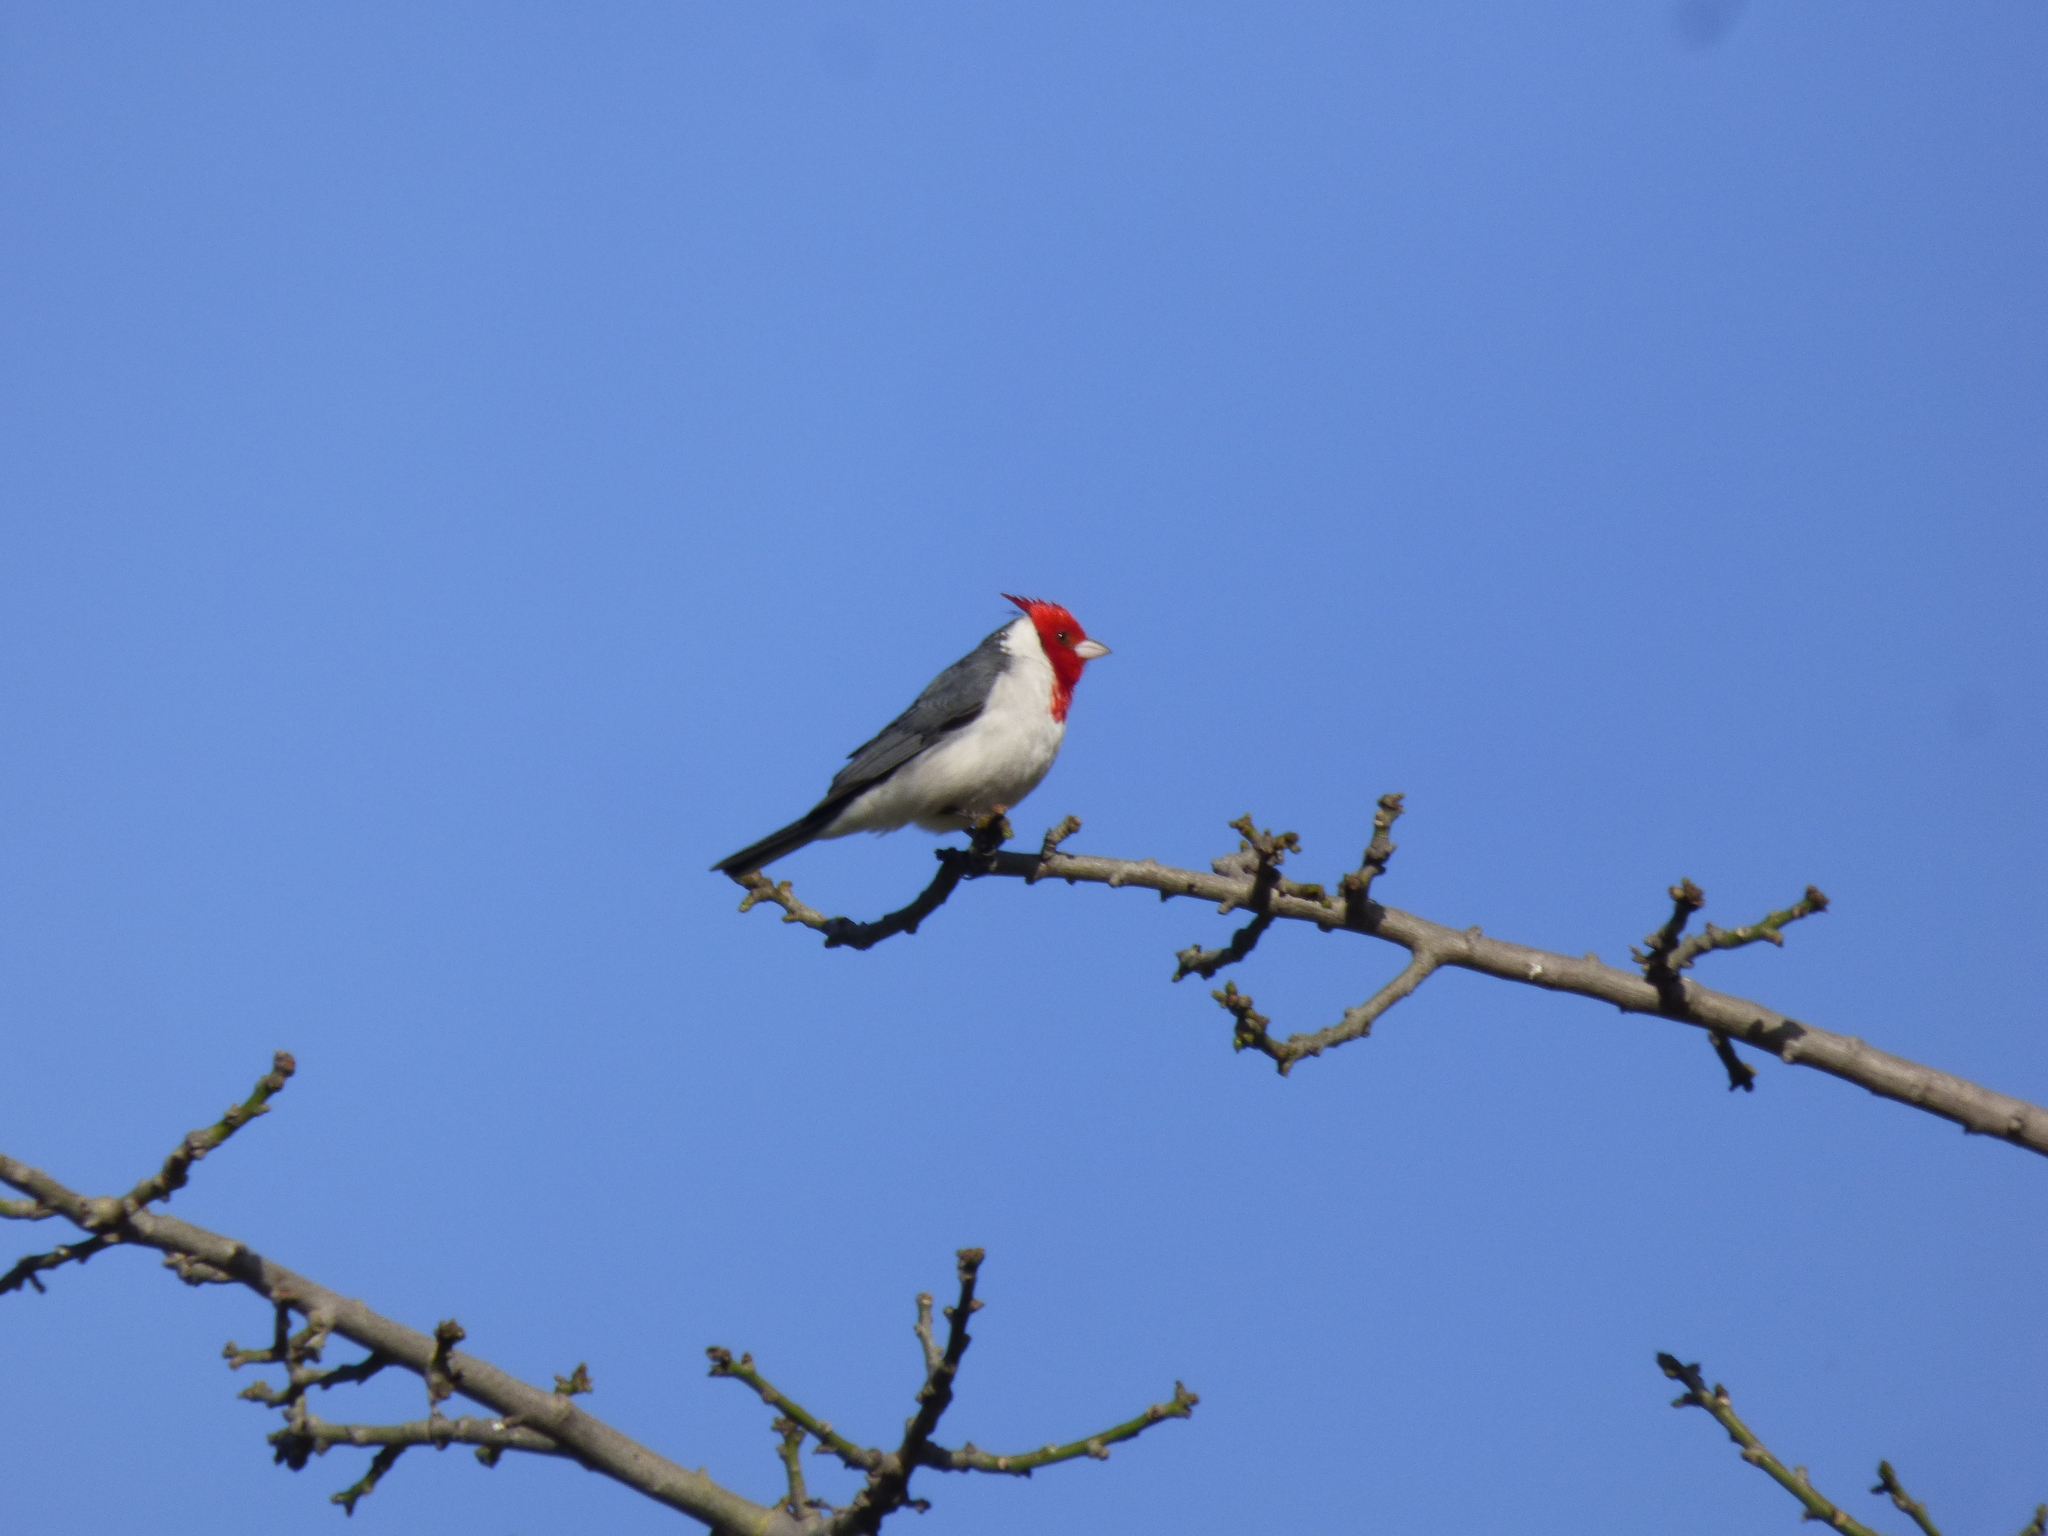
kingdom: Animalia
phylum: Chordata
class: Aves
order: Passeriformes
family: Thraupidae
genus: Paroaria
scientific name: Paroaria coronata
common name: Red-crested cardinal
